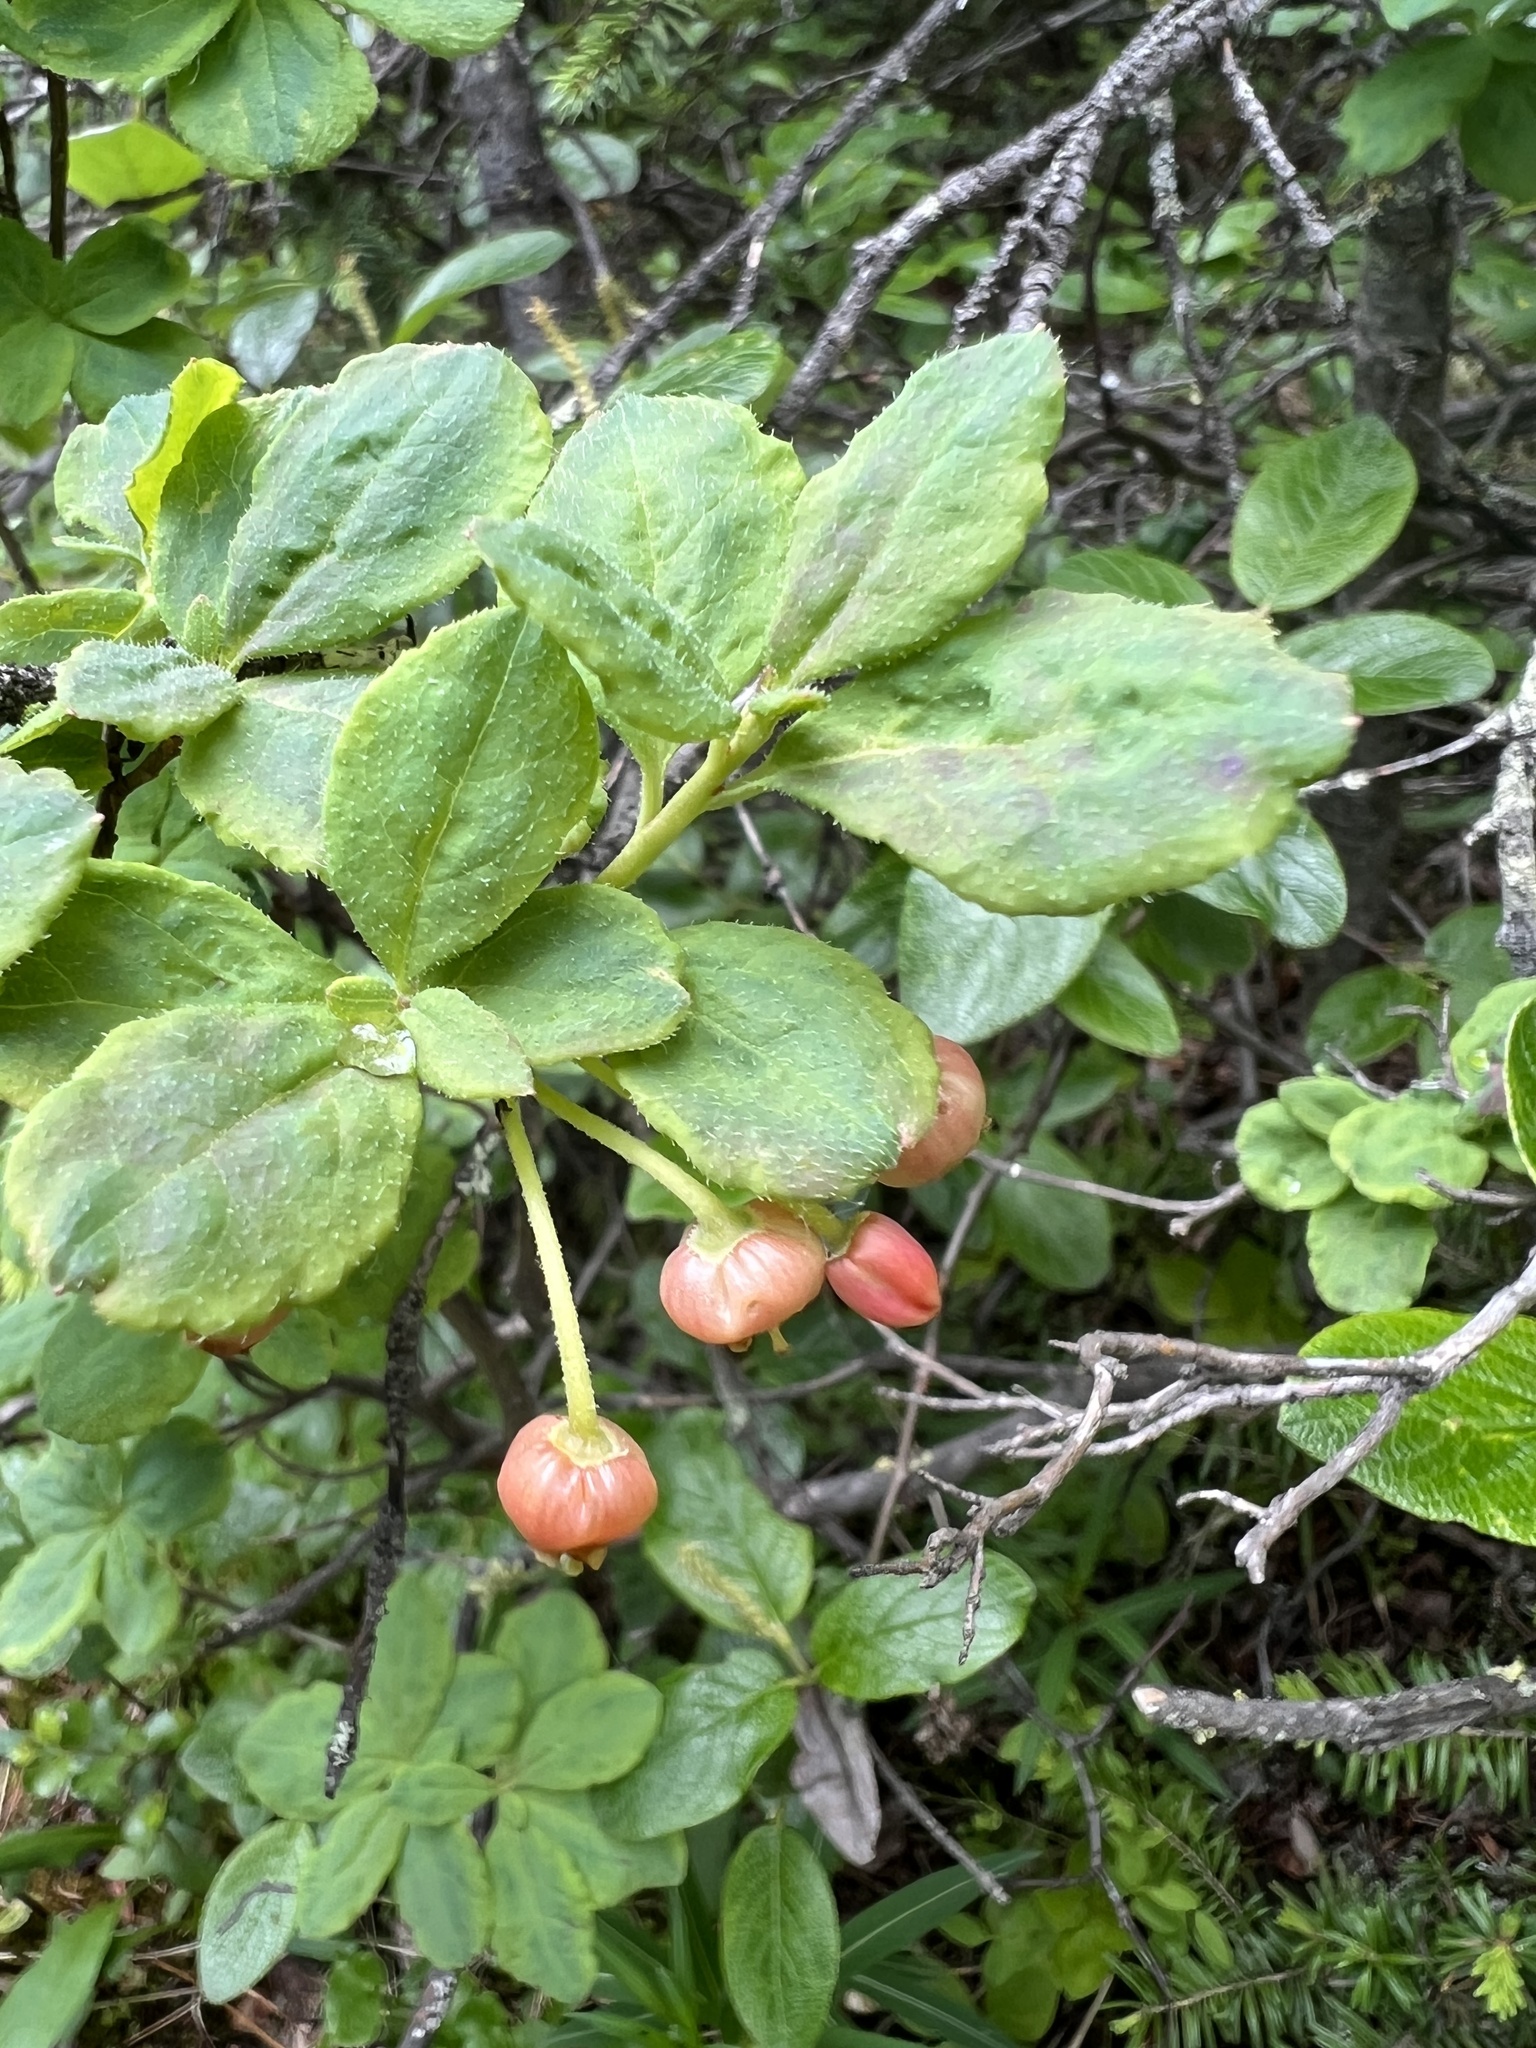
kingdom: Plantae
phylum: Tracheophyta
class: Magnoliopsida
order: Ericales
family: Ericaceae
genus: Rhododendron
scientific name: Rhododendron menziesii
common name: Pacific menziesia
